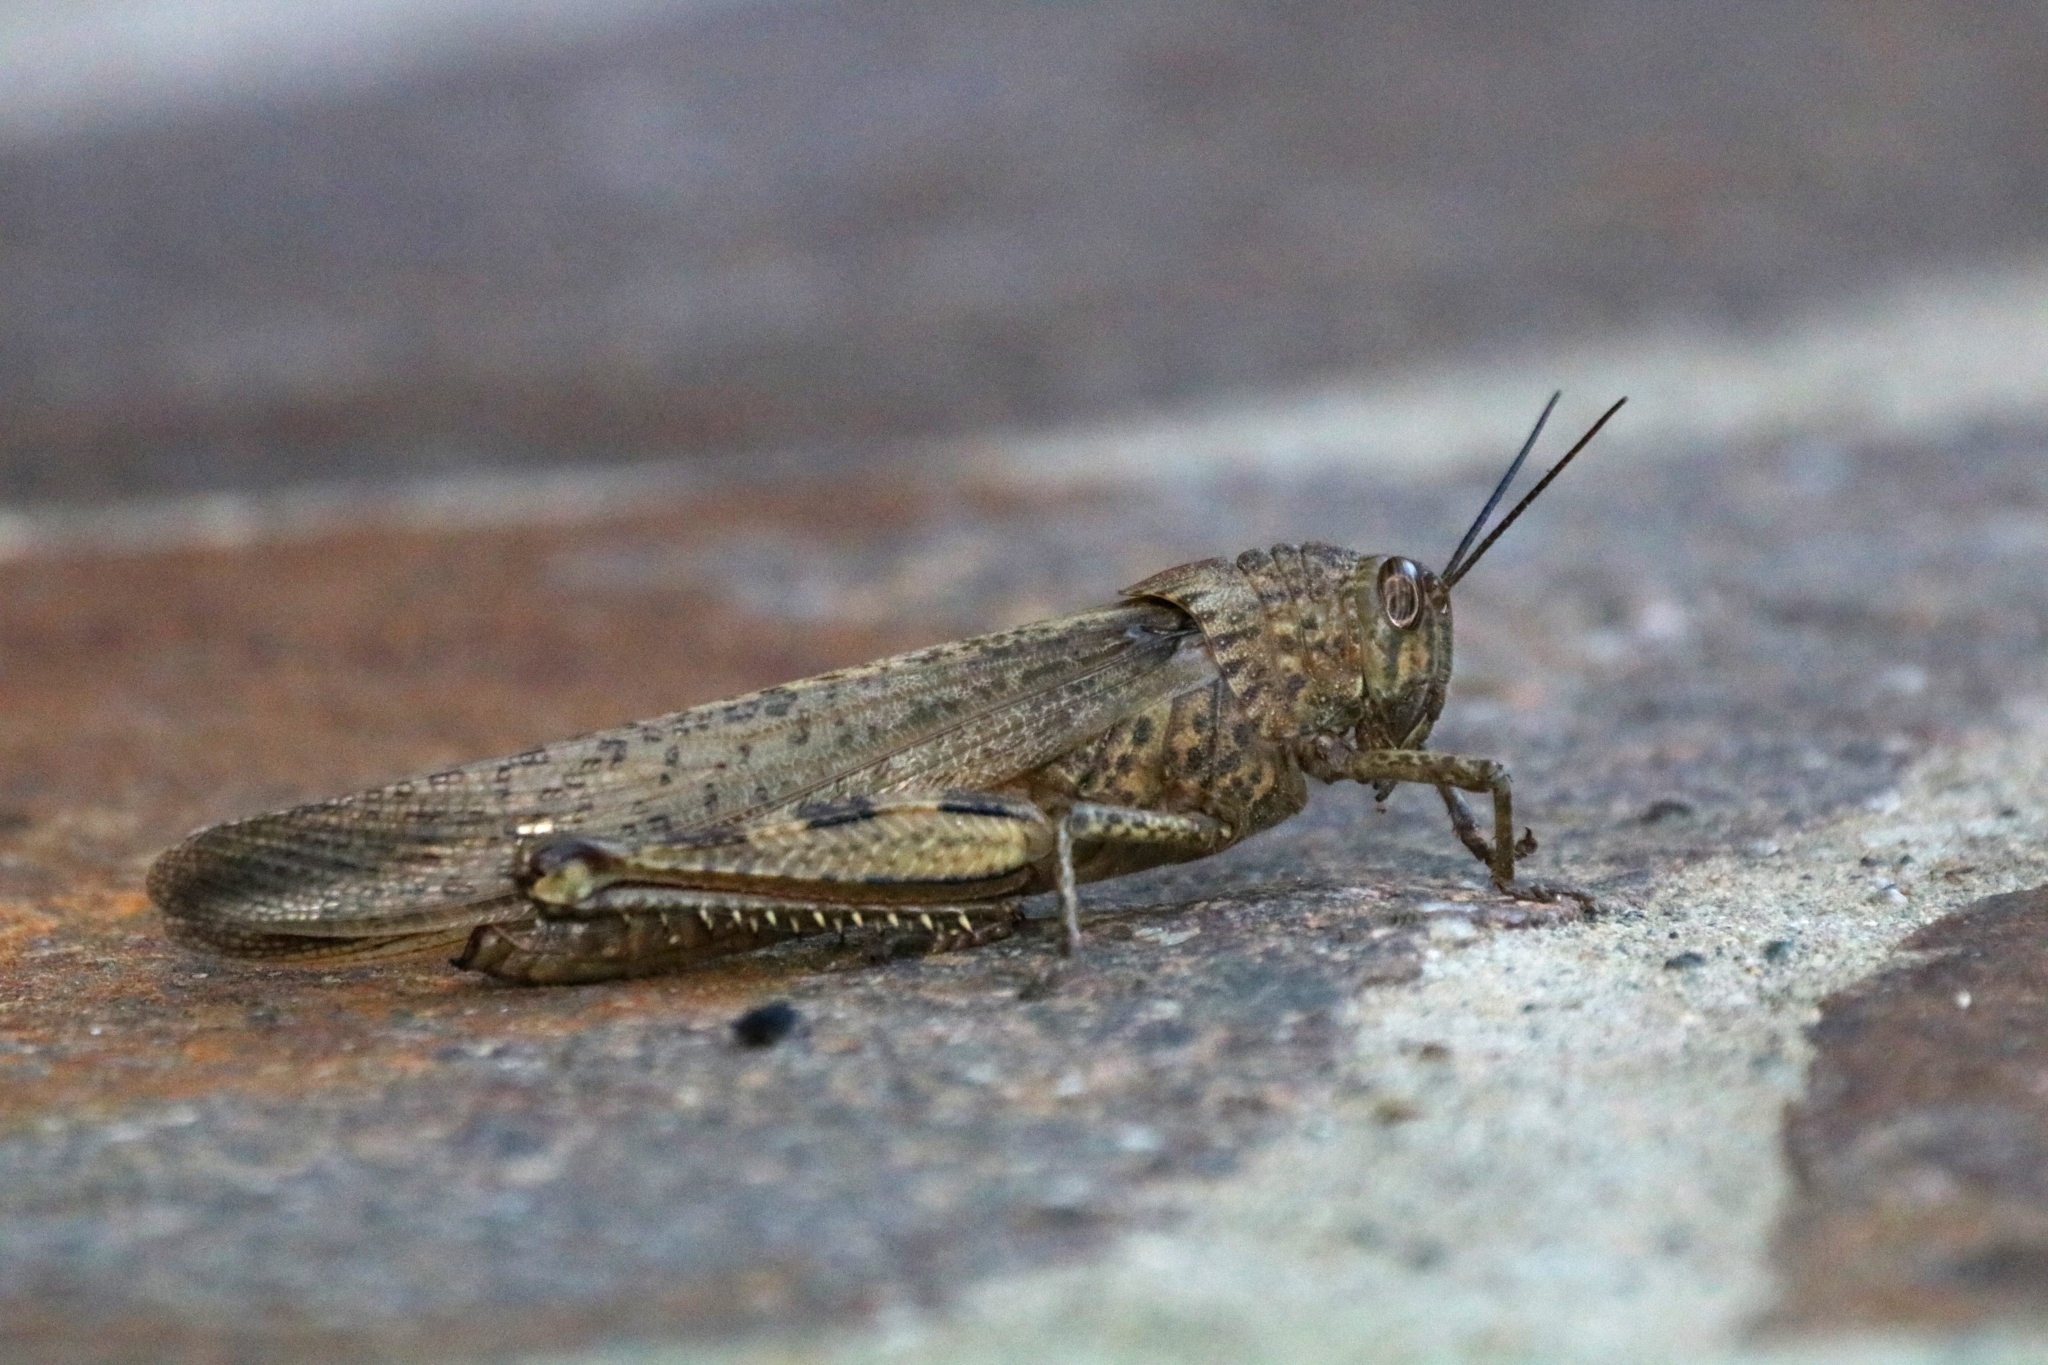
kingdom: Animalia
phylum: Arthropoda
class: Insecta
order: Orthoptera
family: Acrididae
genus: Anacridium
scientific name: Anacridium aegyptium
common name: Egyptian grasshopper
